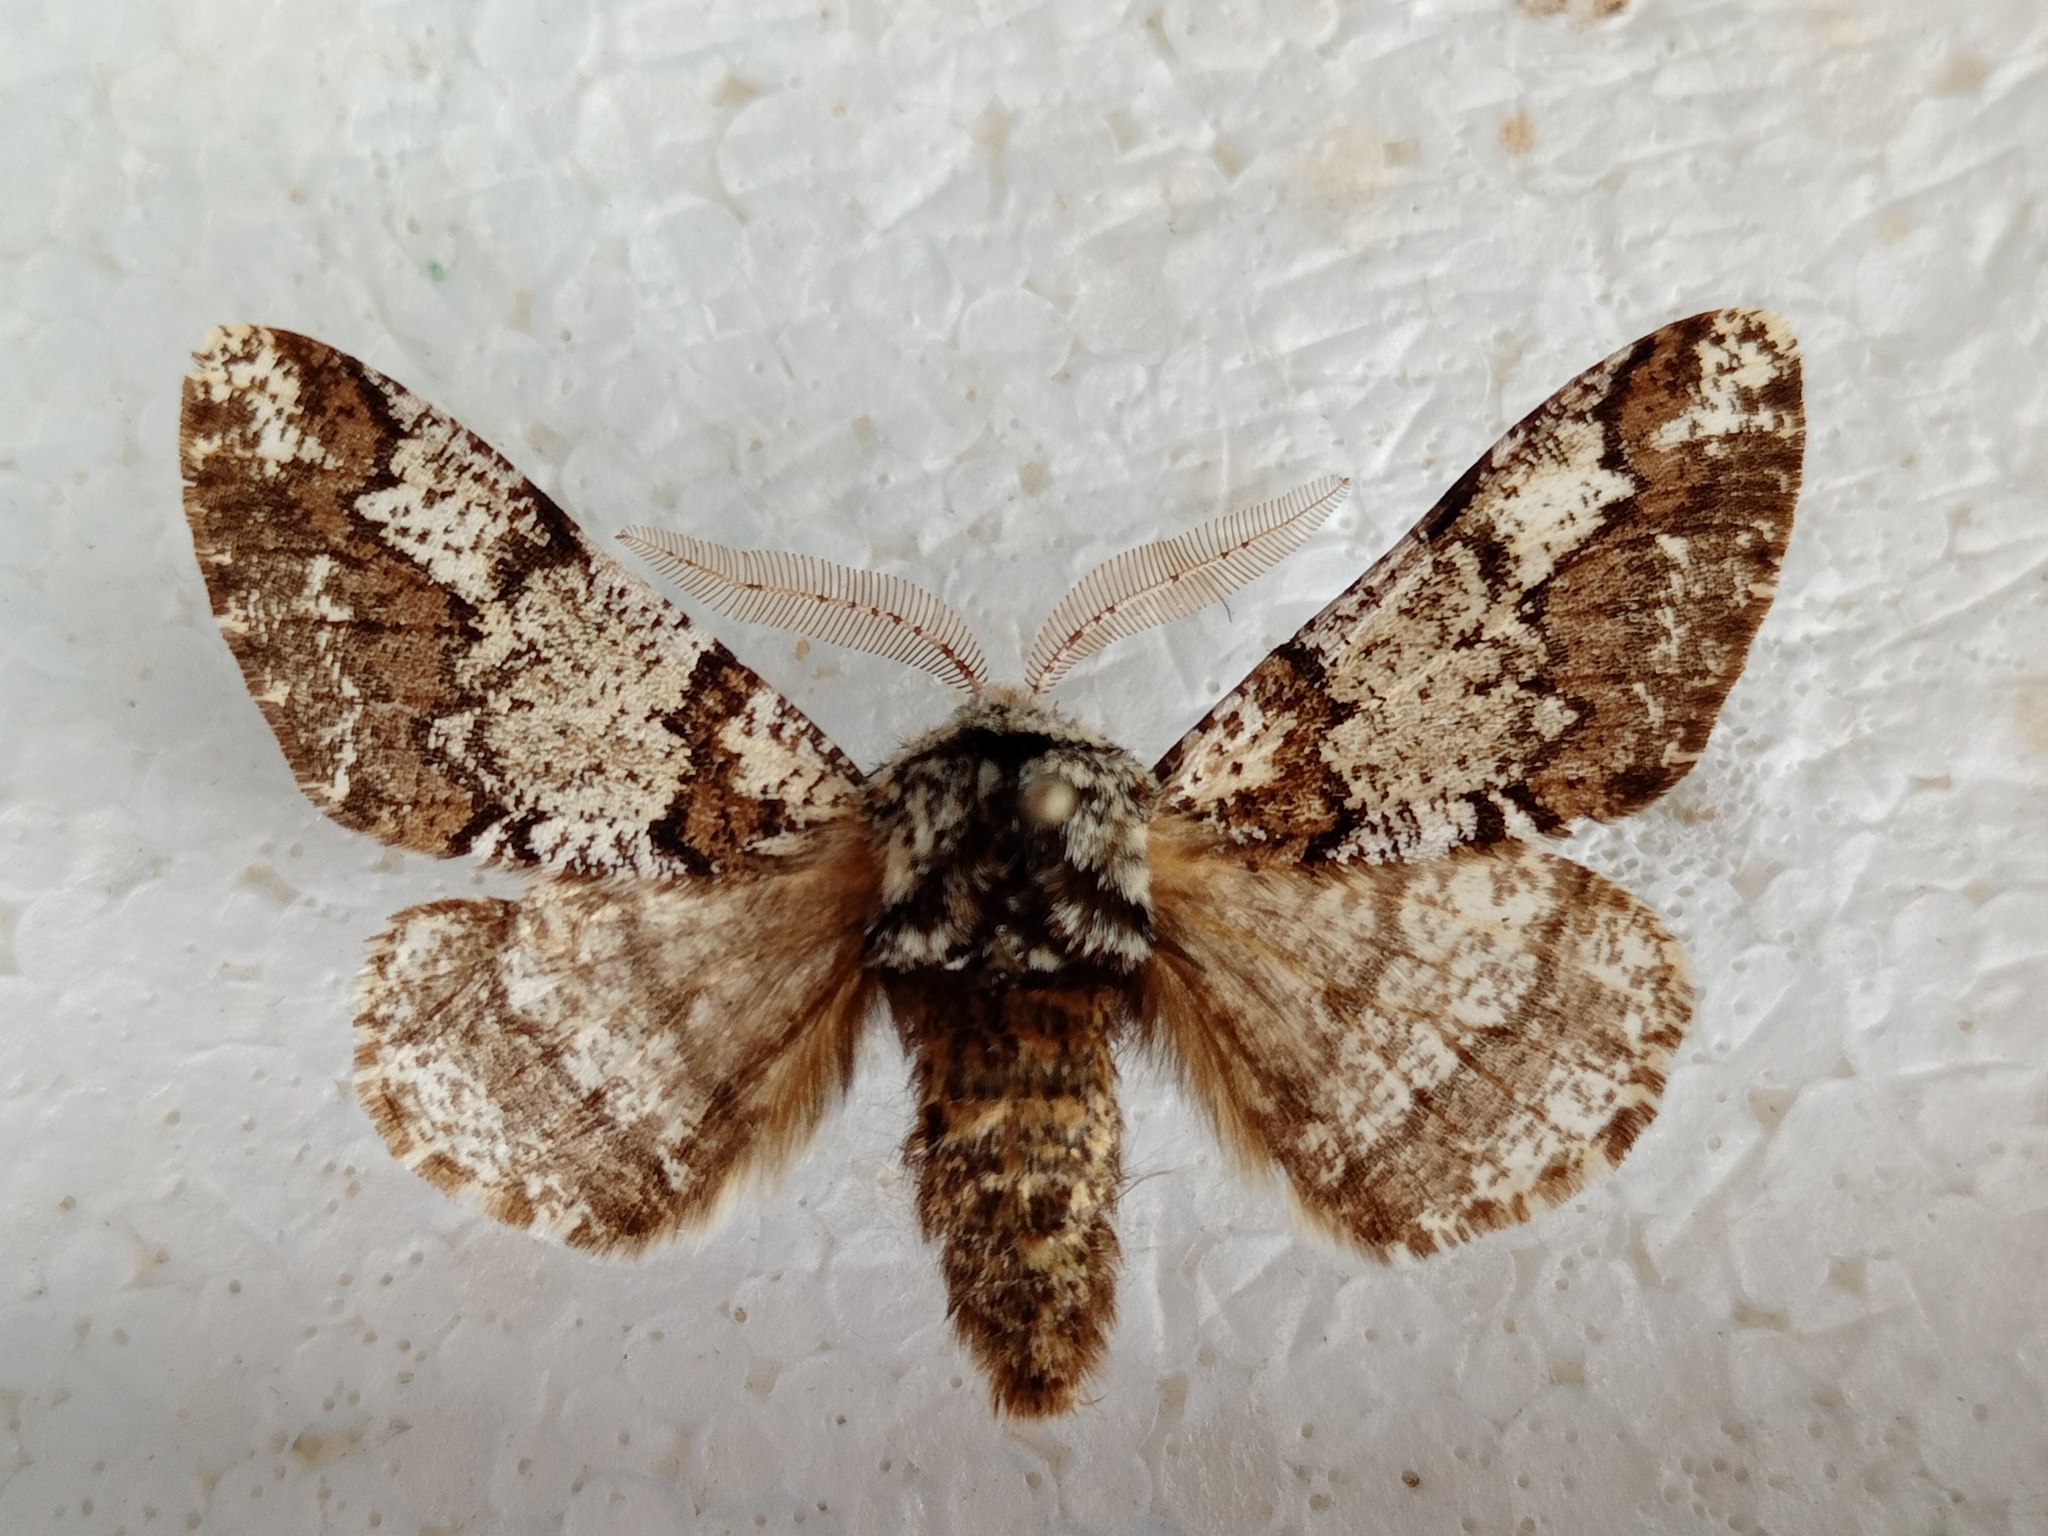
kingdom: Animalia
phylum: Arthropoda
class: Insecta
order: Lepidoptera
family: Geometridae
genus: Biston
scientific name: Biston strataria
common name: Oak beauty
